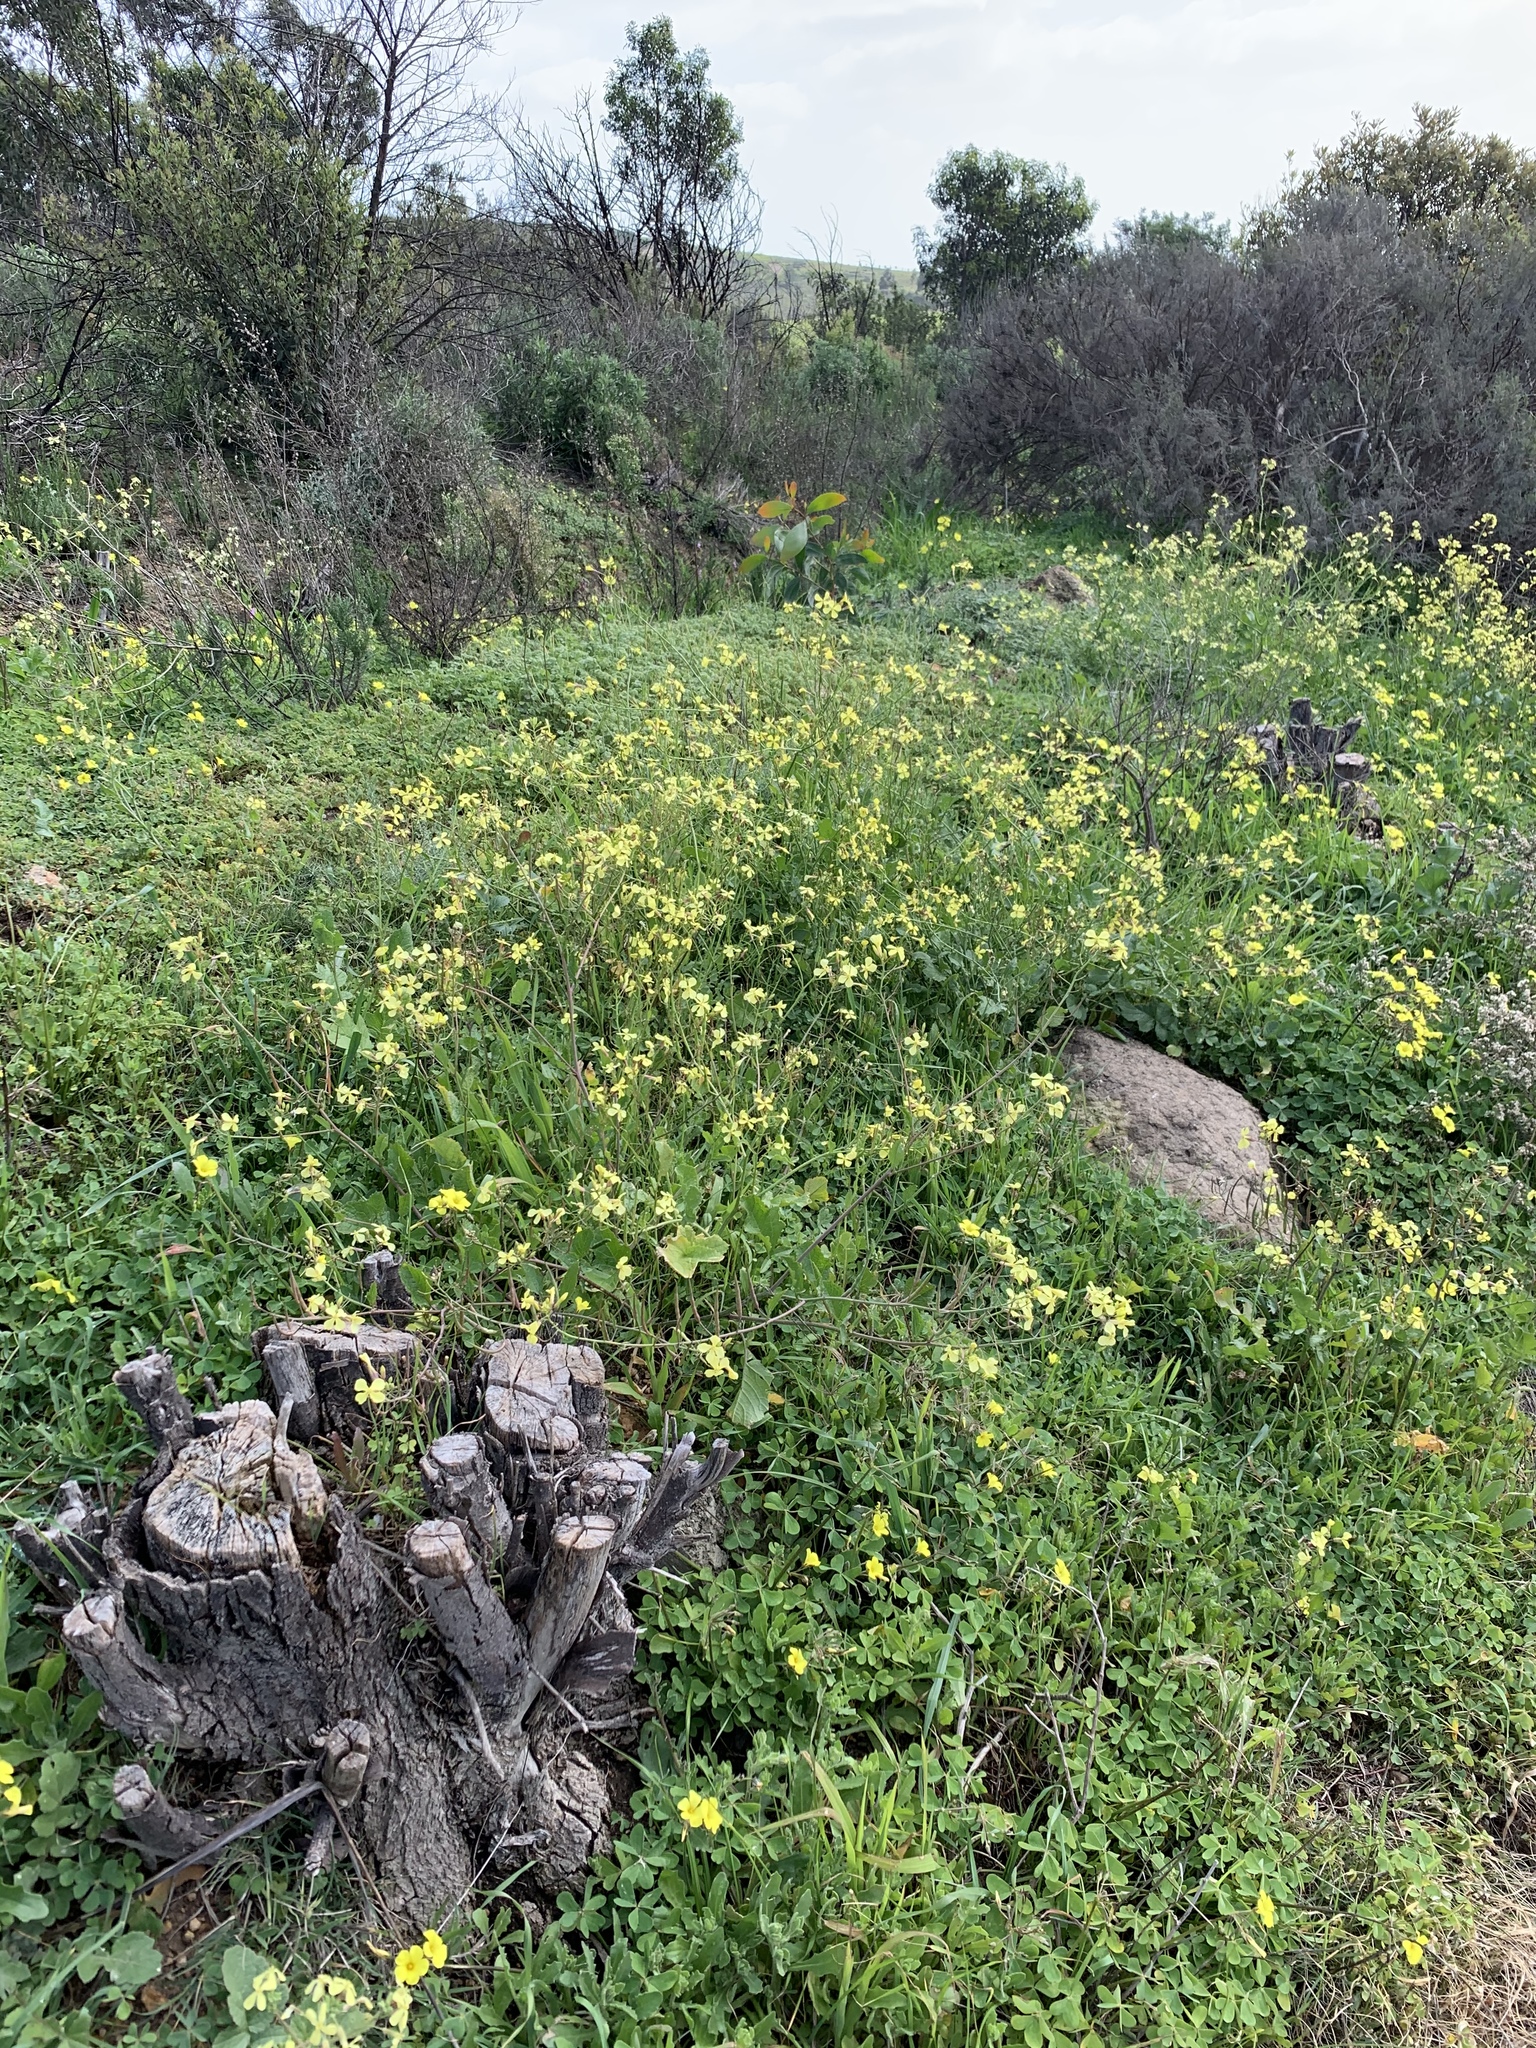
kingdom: Plantae
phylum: Tracheophyta
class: Magnoliopsida
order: Brassicales
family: Brassicaceae
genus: Raphanus
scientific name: Raphanus raphanistrum
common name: Wild radish
